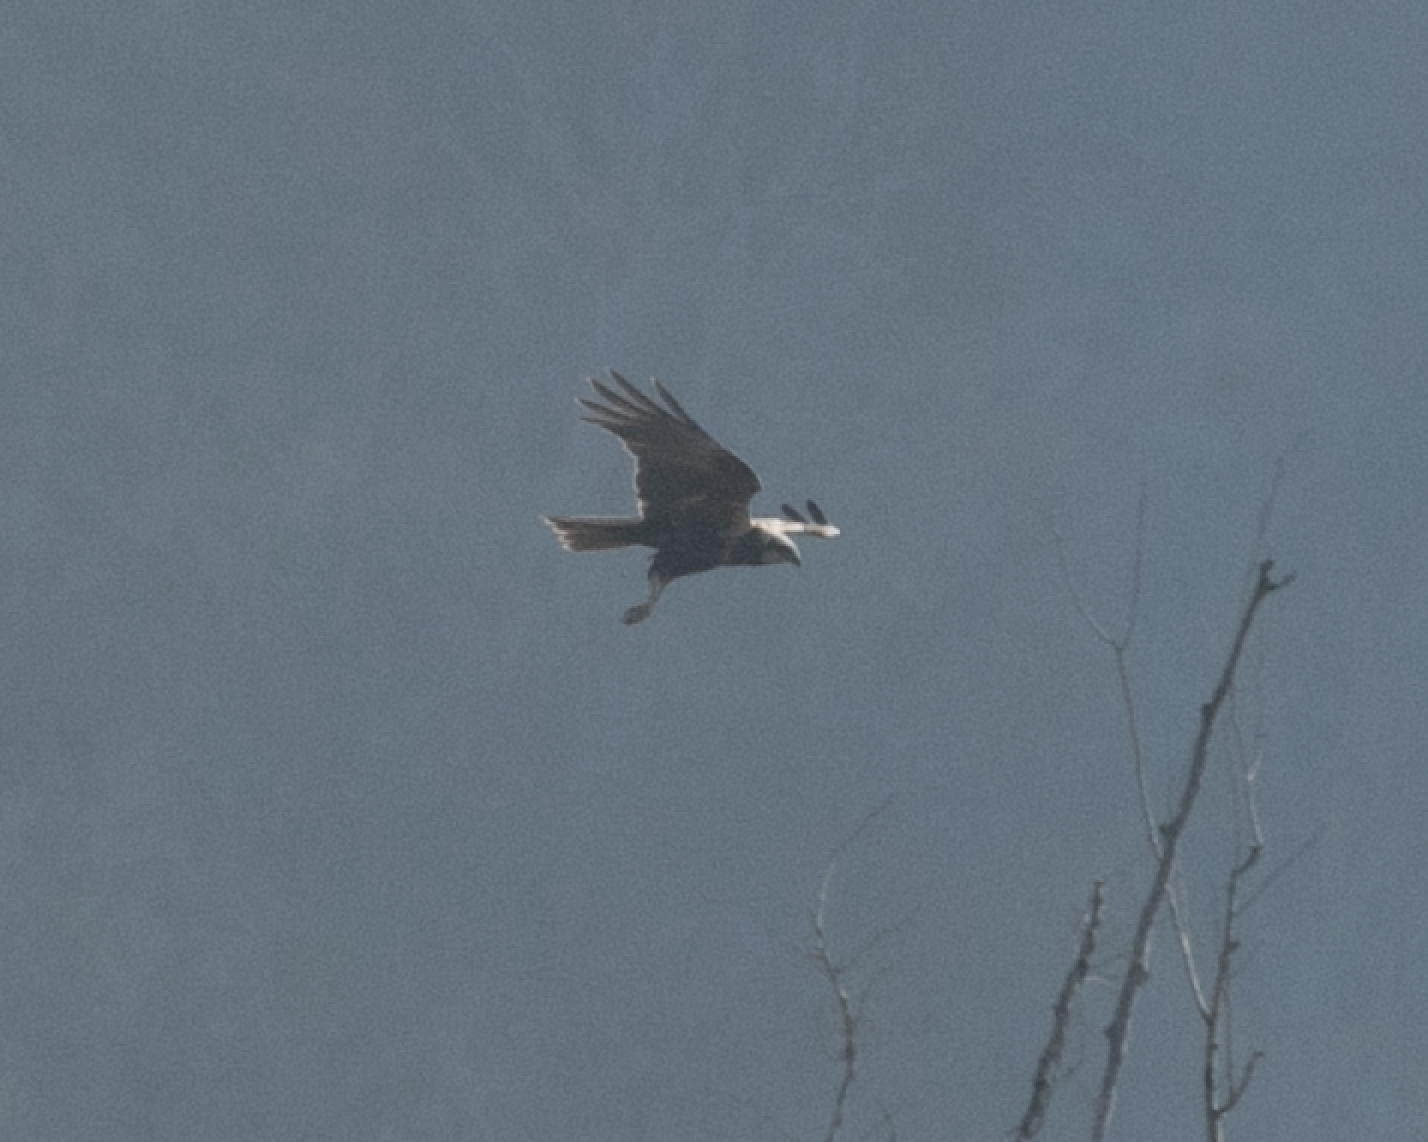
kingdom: Animalia
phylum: Chordata
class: Aves
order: Accipitriformes
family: Accipitridae
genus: Circus
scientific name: Circus aeruginosus
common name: Western marsh harrier
